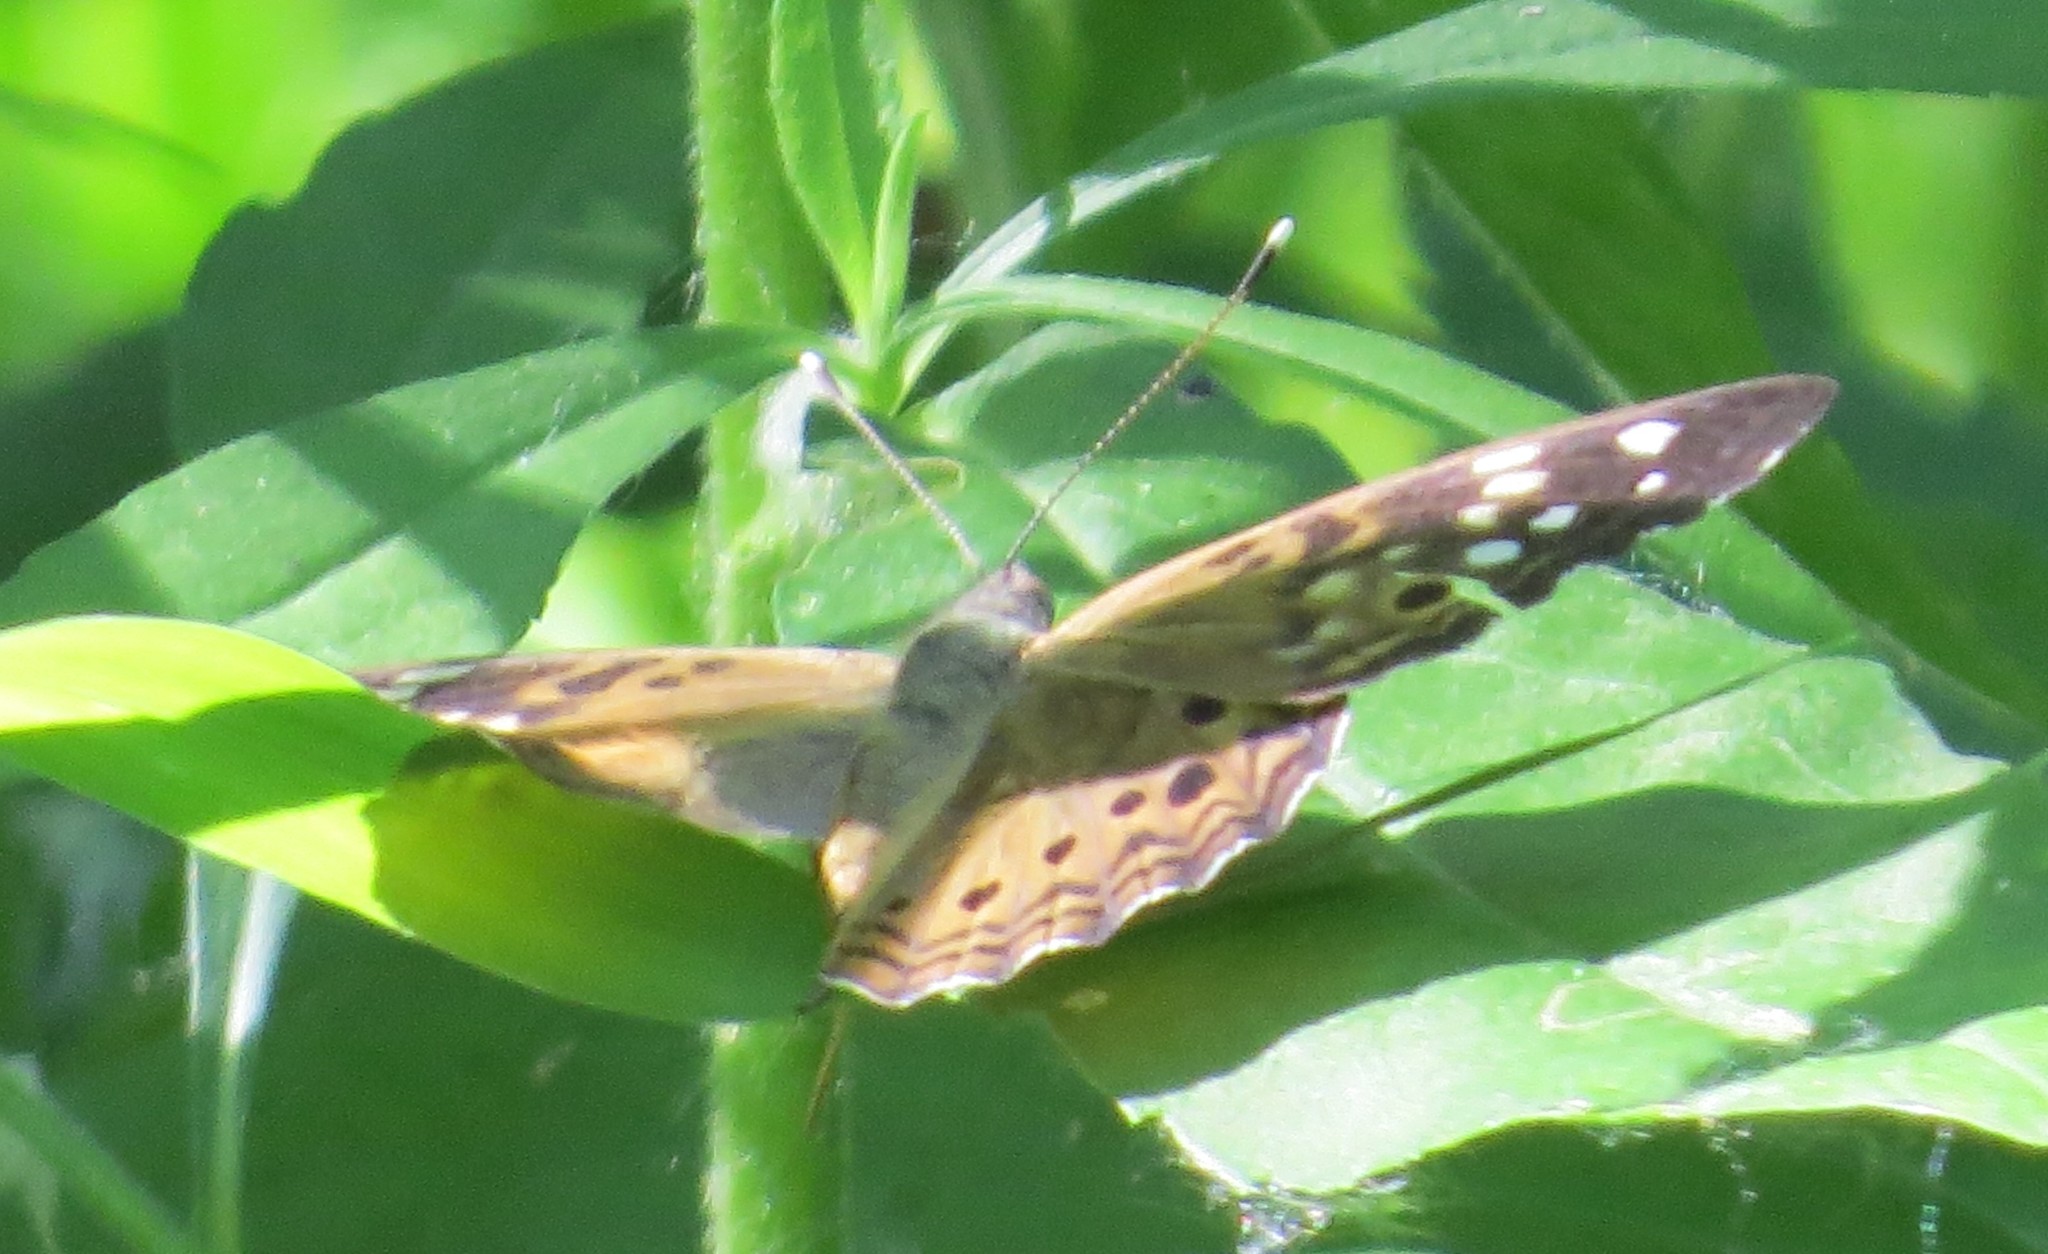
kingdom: Animalia
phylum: Arthropoda
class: Insecta
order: Lepidoptera
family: Nymphalidae
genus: Asterocampa
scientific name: Asterocampa celtis
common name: Hackberry emperor
